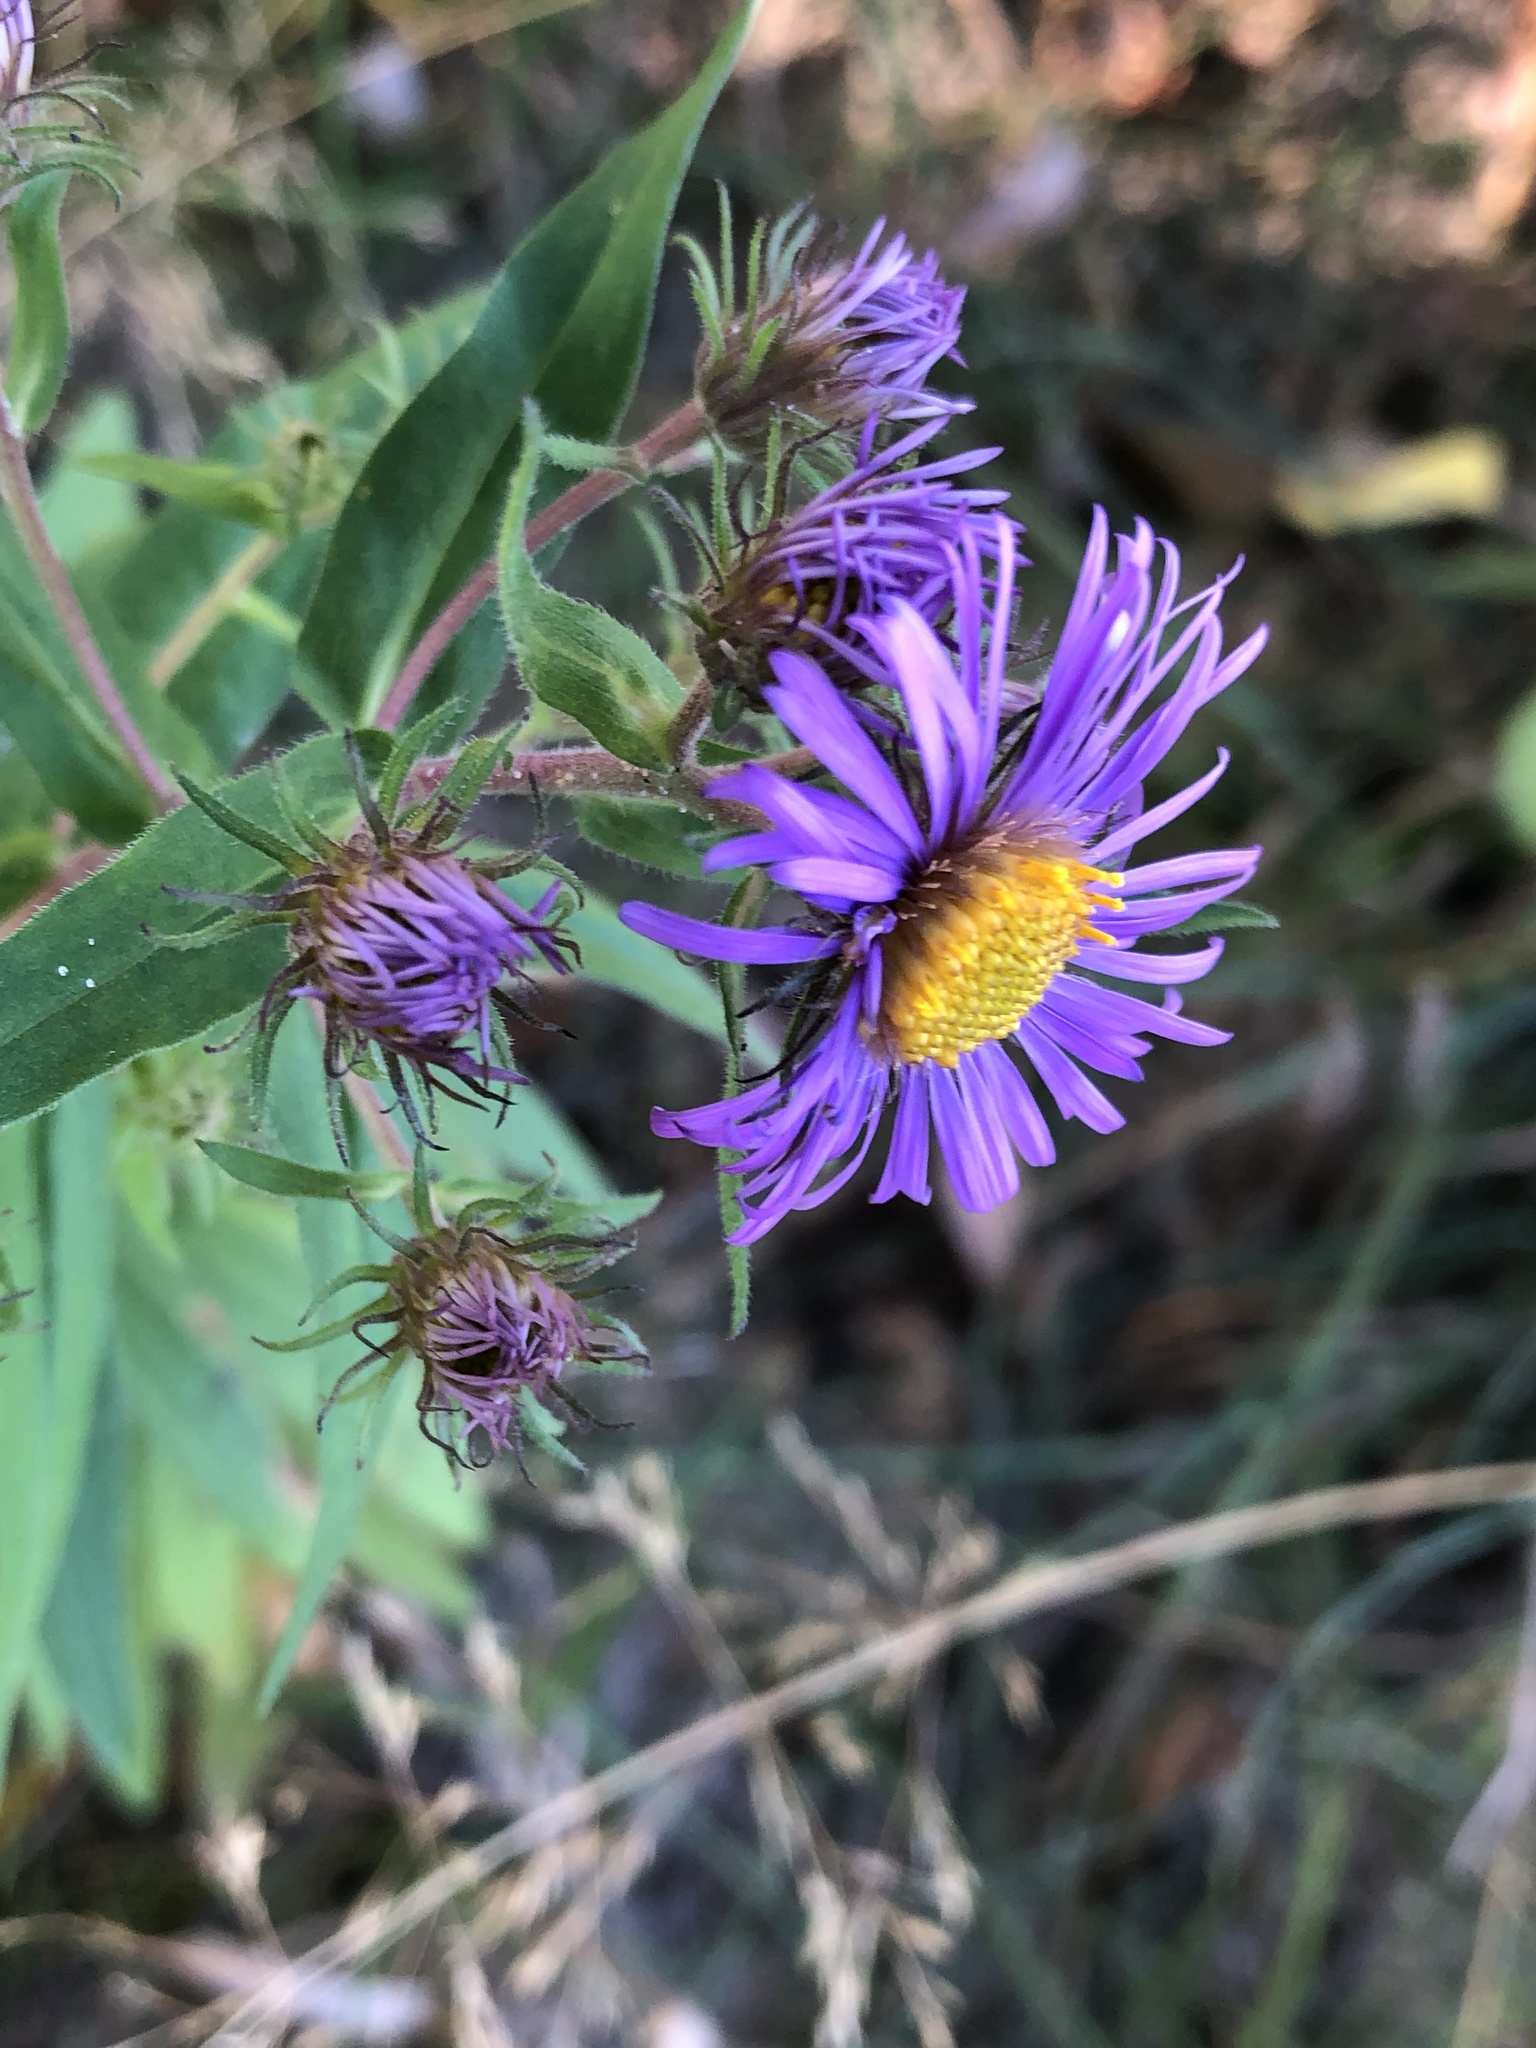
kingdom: Plantae
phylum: Tracheophyta
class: Magnoliopsida
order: Asterales
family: Asteraceae
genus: Symphyotrichum
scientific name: Symphyotrichum novae-angliae
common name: Michaelmas daisy
